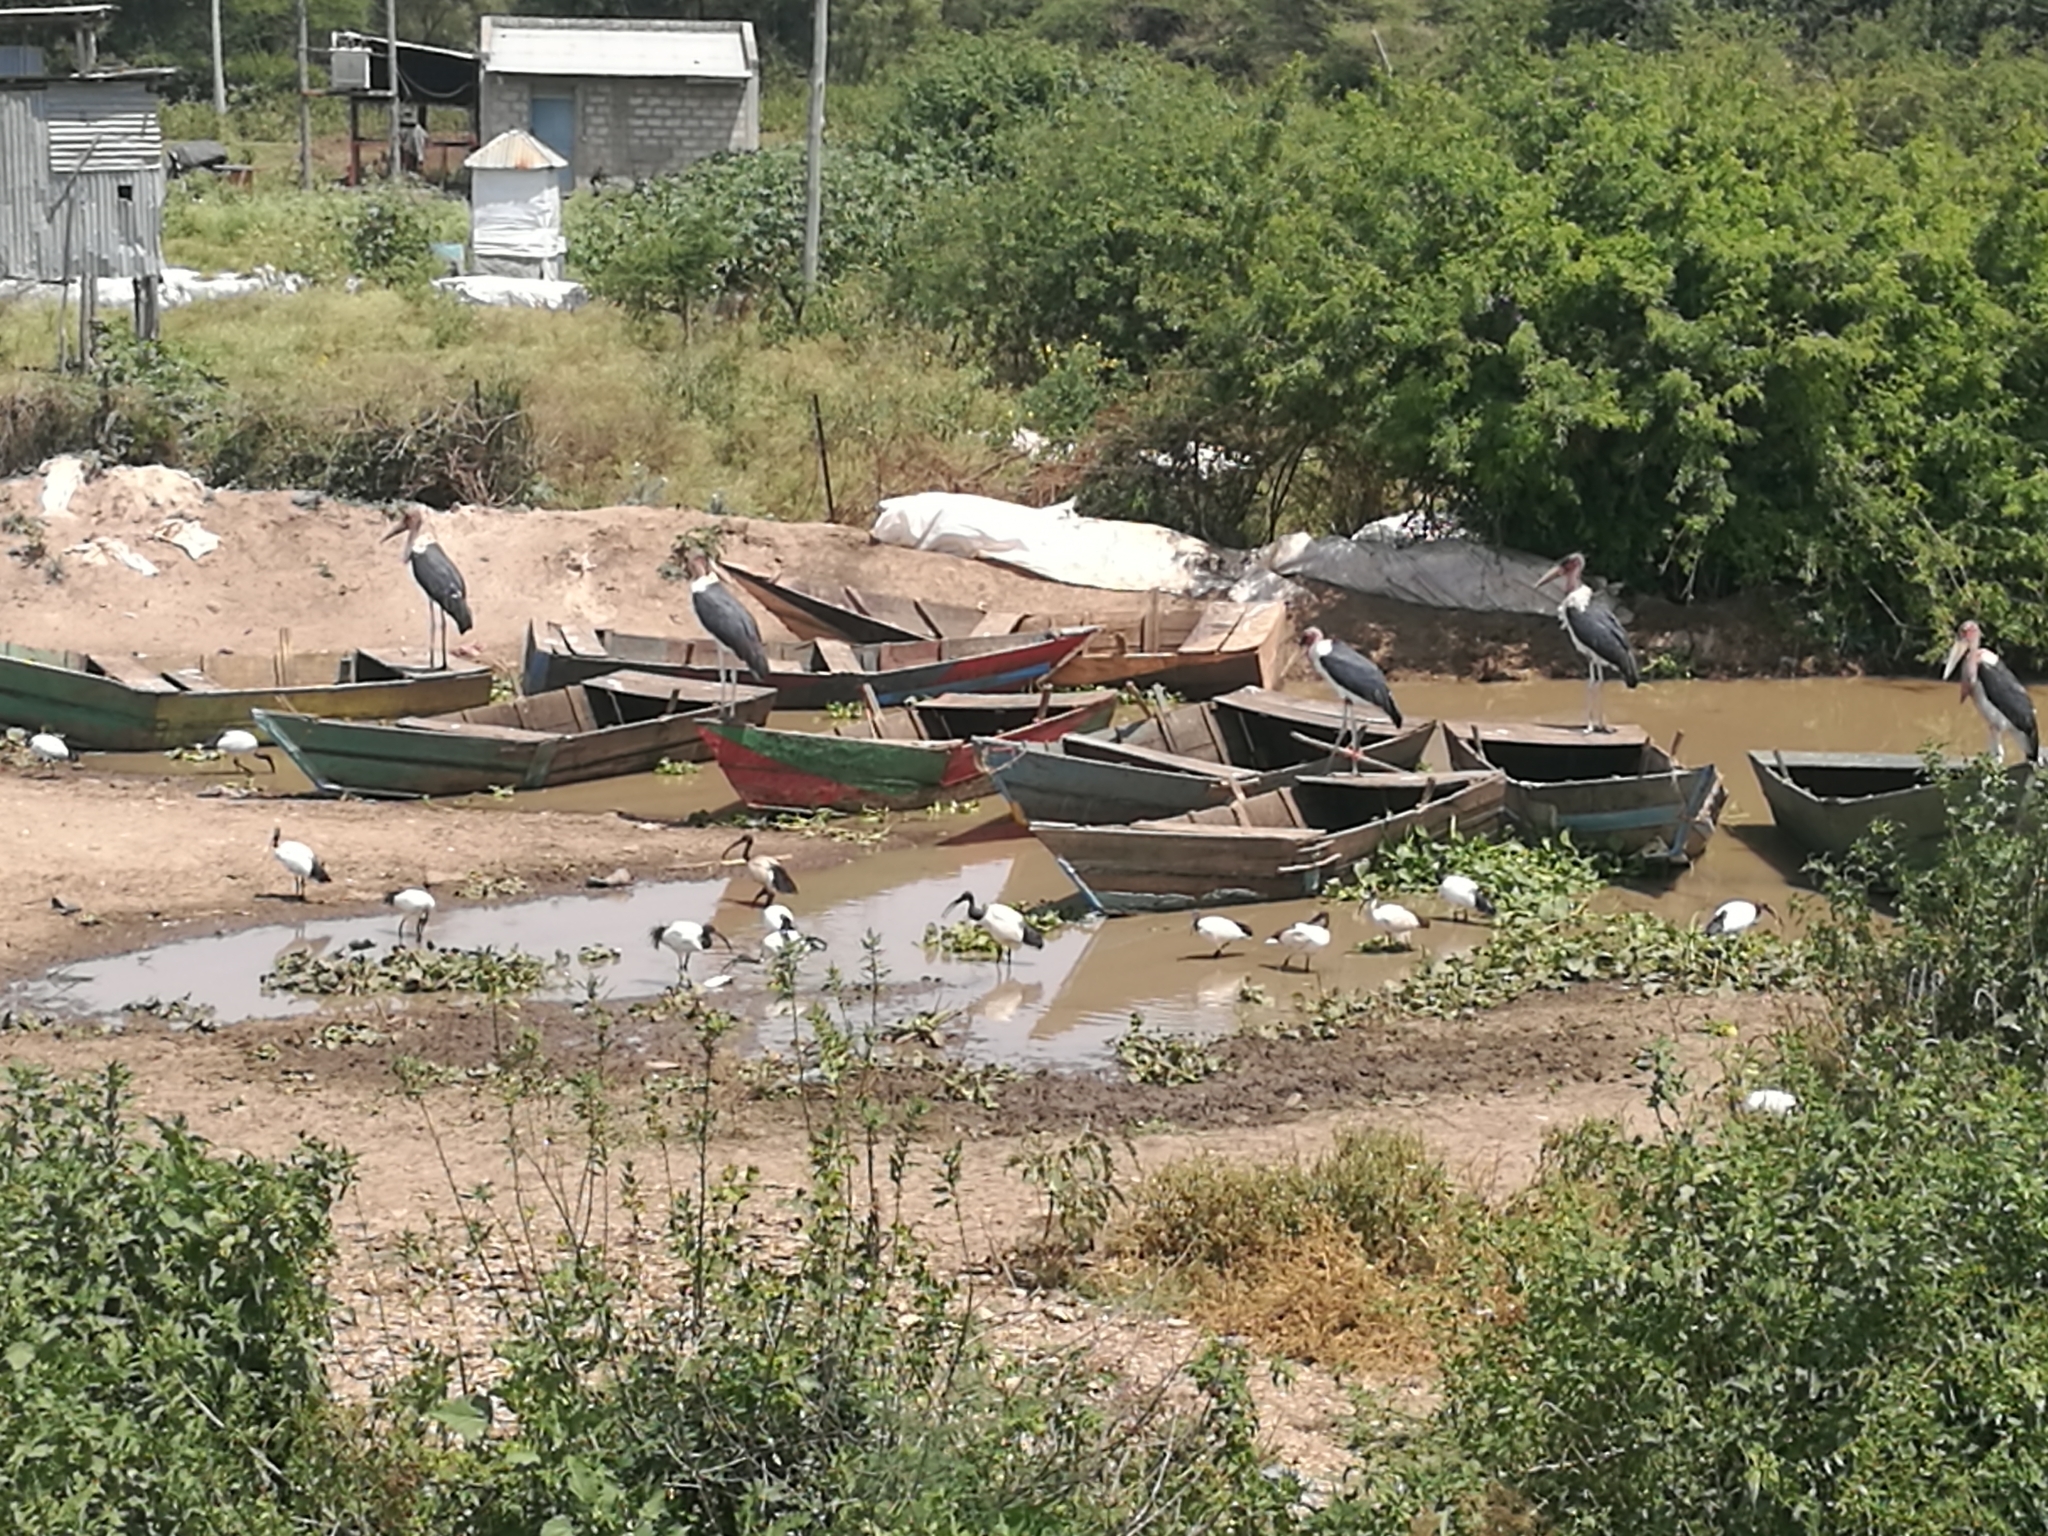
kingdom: Animalia
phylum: Chordata
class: Aves
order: Ciconiiformes
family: Ciconiidae
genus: Leptoptilos
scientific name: Leptoptilos crumenifer
